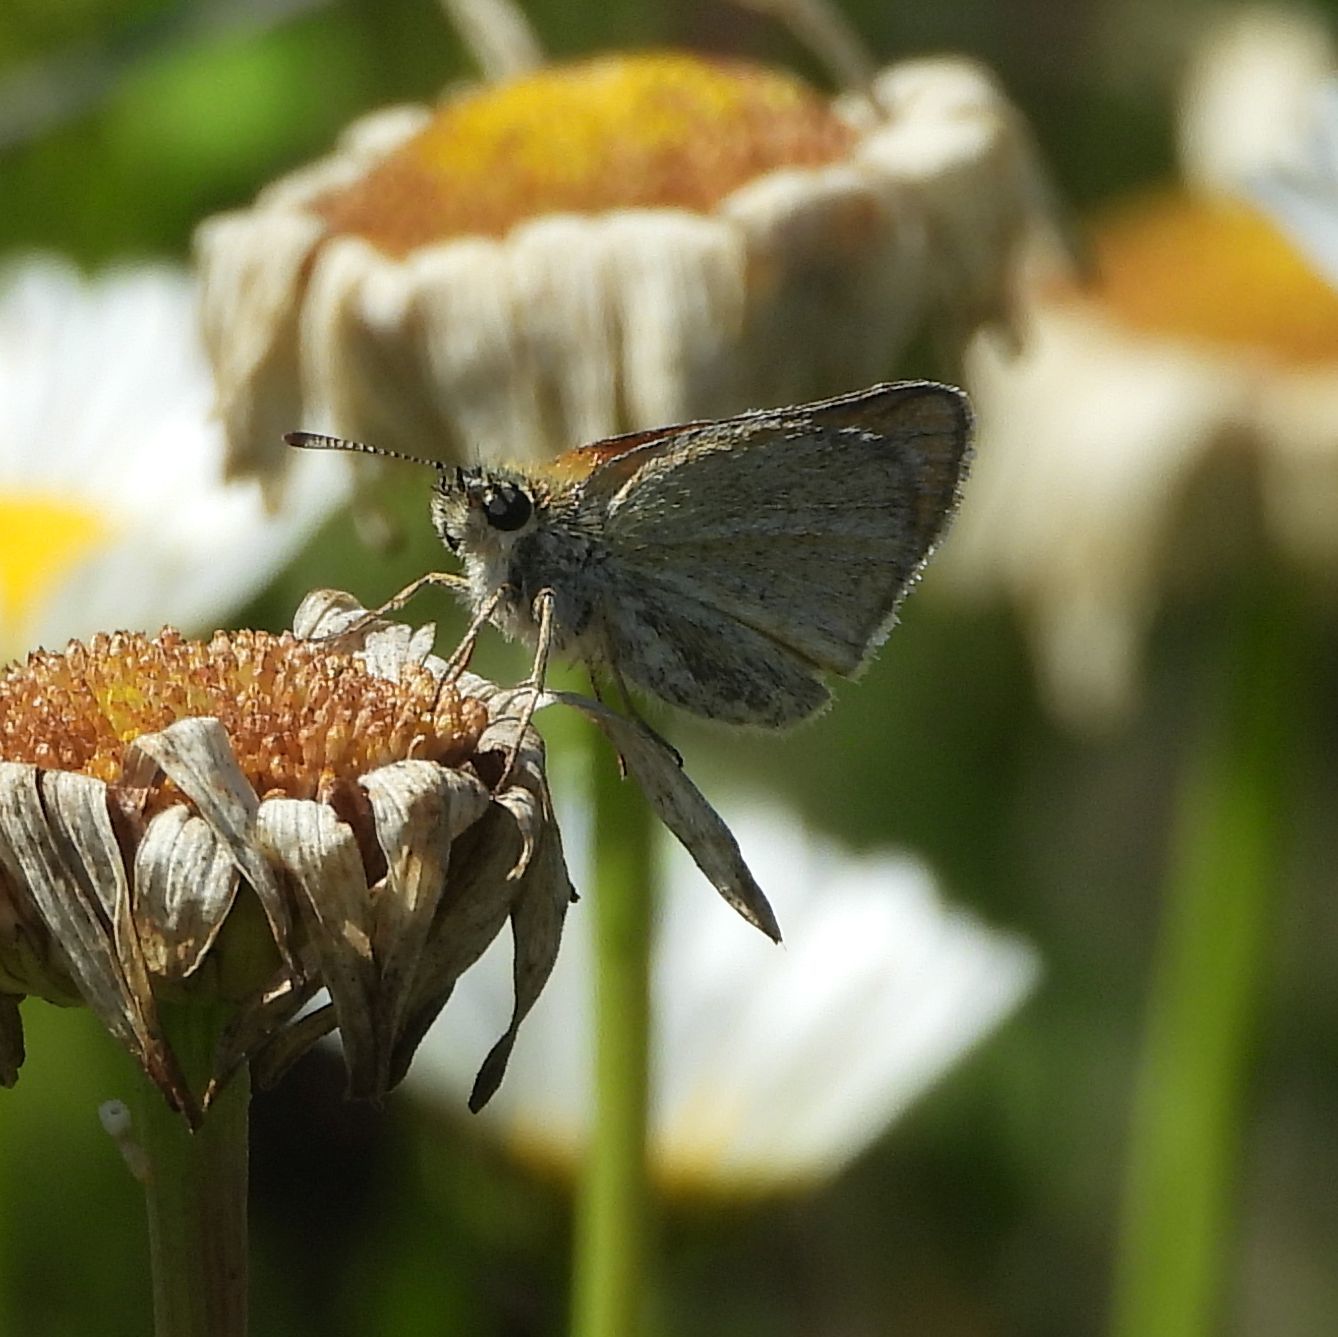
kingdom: Animalia
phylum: Arthropoda
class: Insecta
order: Lepidoptera
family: Hesperiidae
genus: Thymelicus
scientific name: Thymelicus lineola
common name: Essex skipper
